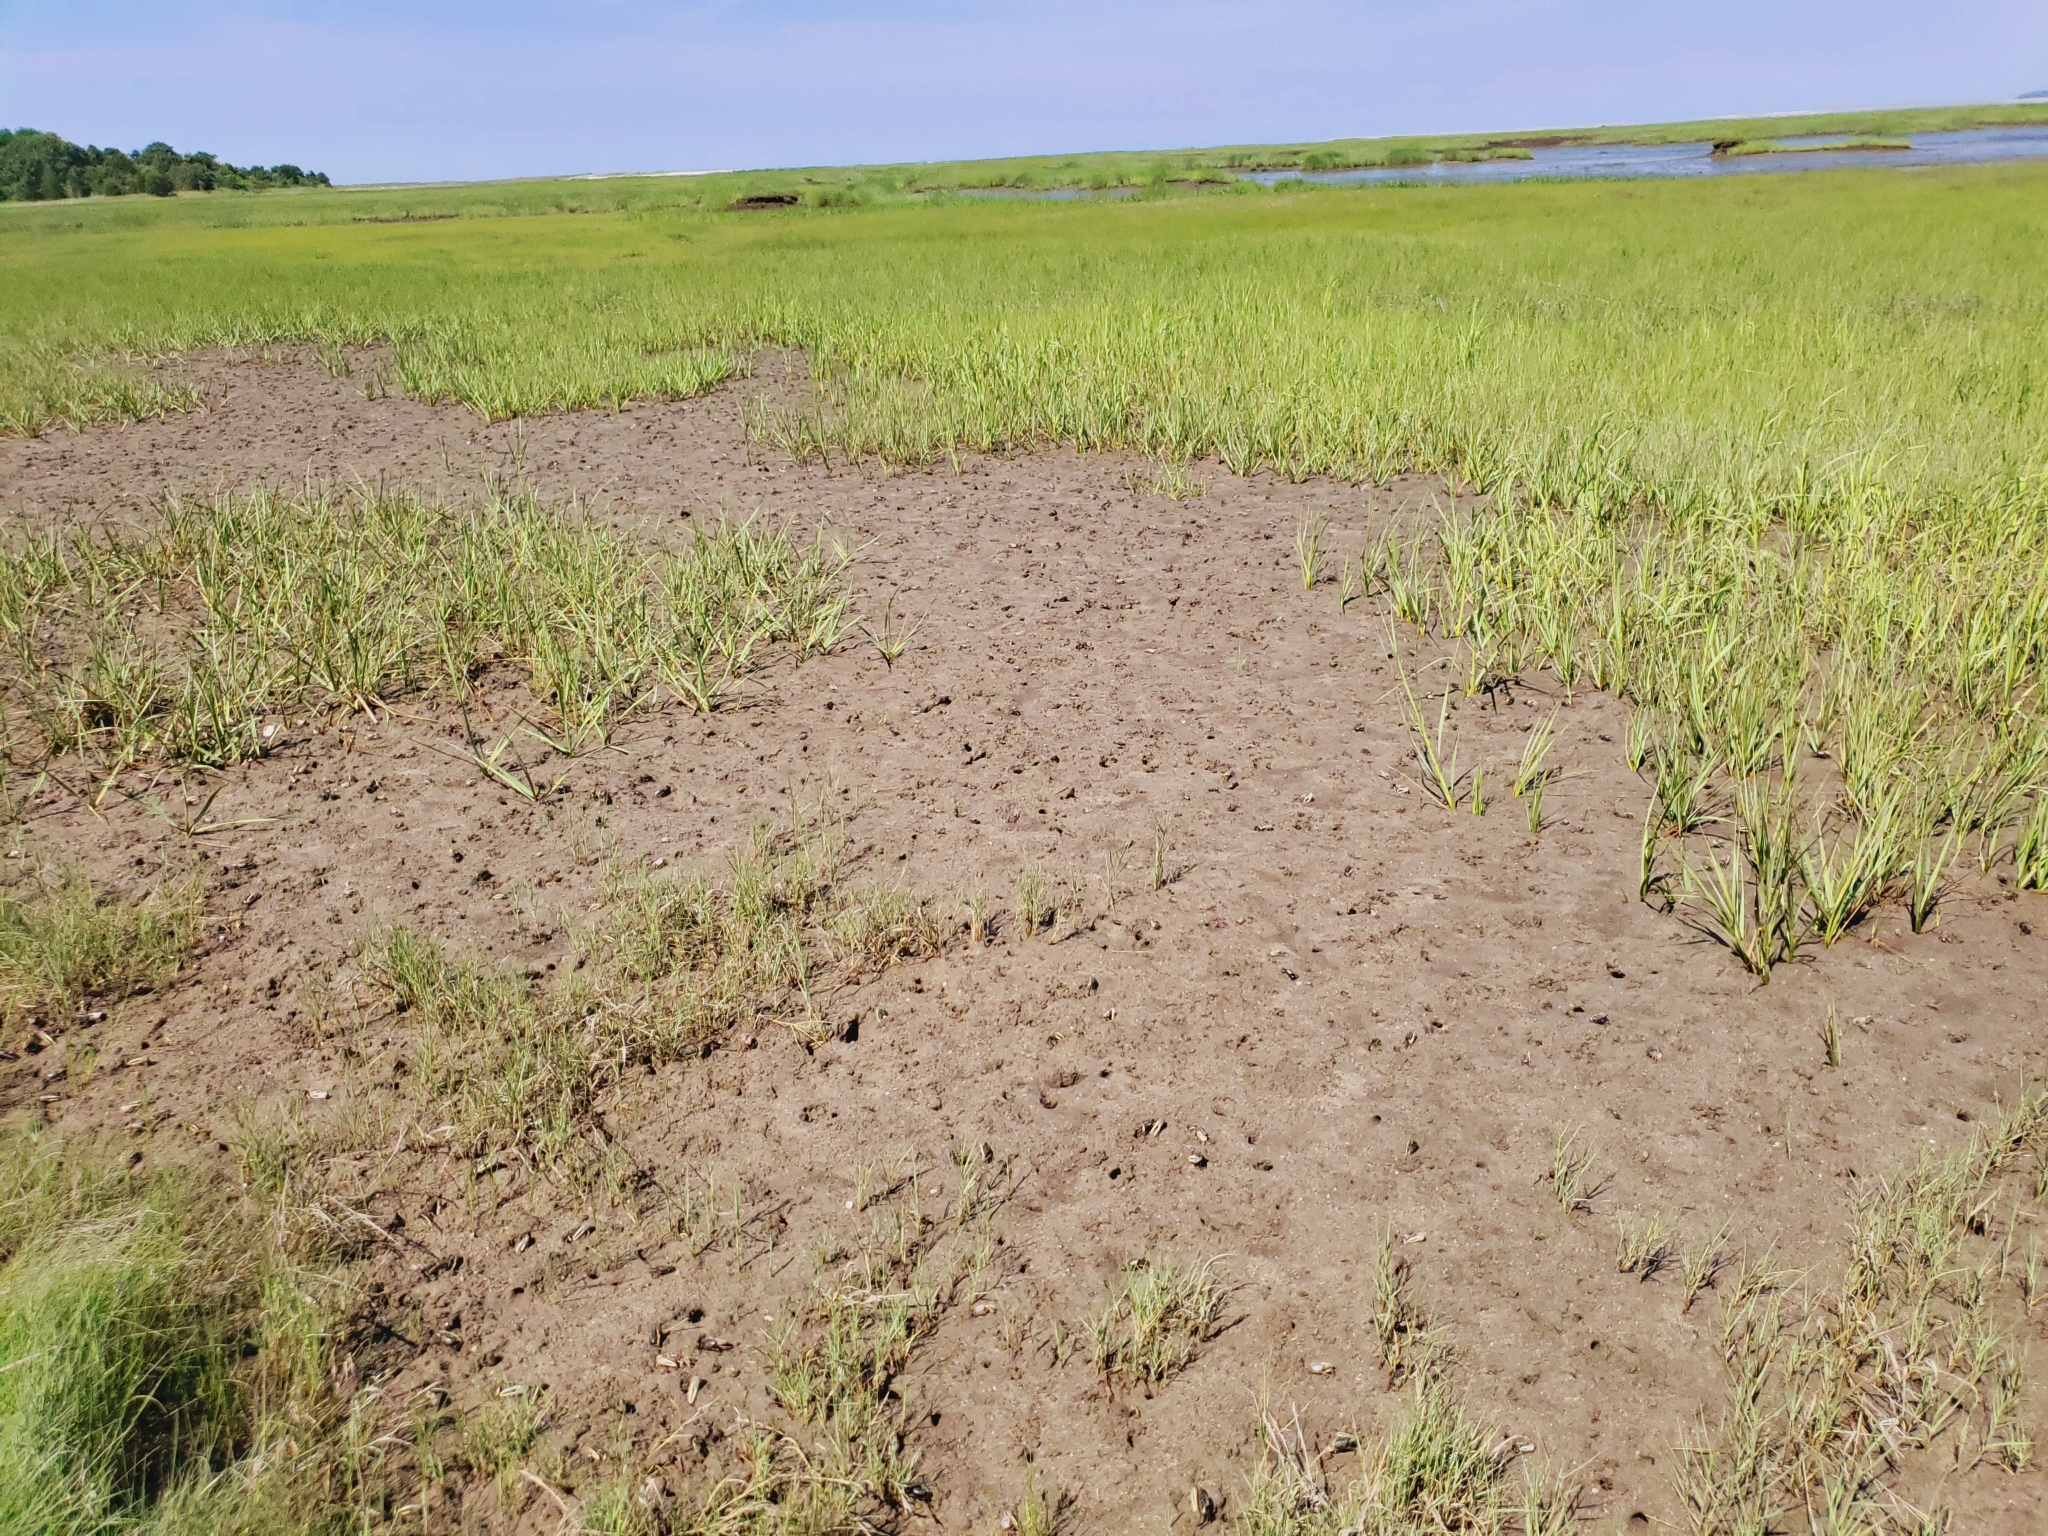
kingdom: Plantae
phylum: Tracheophyta
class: Liliopsida
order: Poales
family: Poaceae
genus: Sporobolus
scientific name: Sporobolus alterniflorus
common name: Atlantic cordgrass
